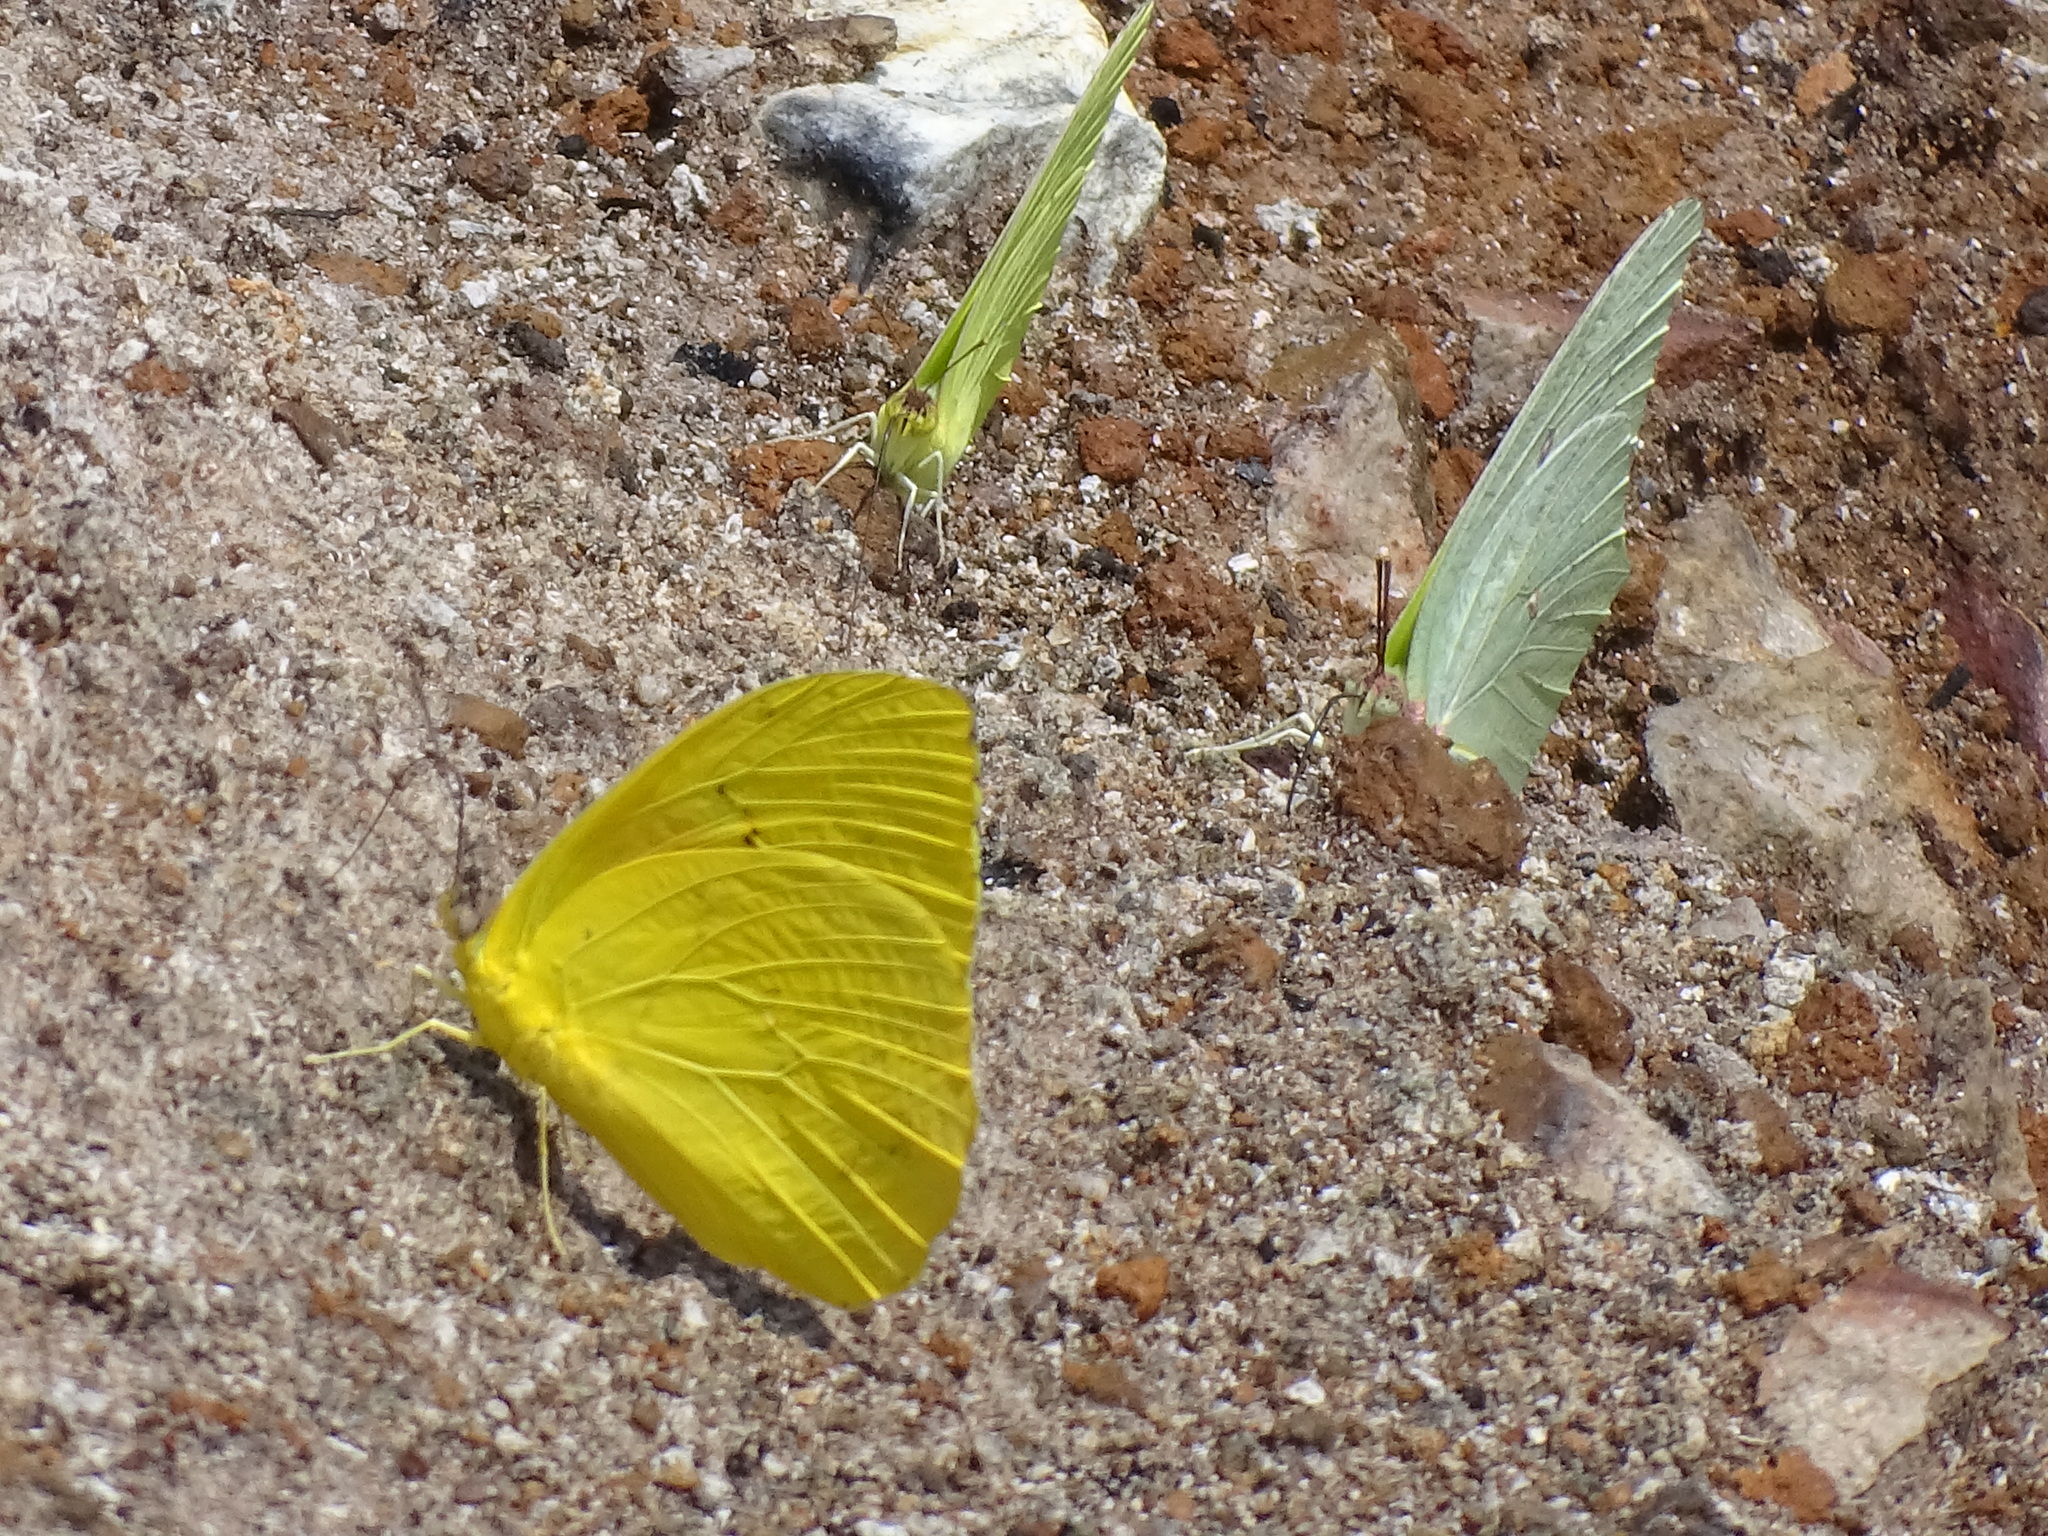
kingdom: Animalia
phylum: Arthropoda
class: Insecta
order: Lepidoptera
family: Pieridae
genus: Phoebis
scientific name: Phoebis philea
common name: Orange-barred giant sulphur
